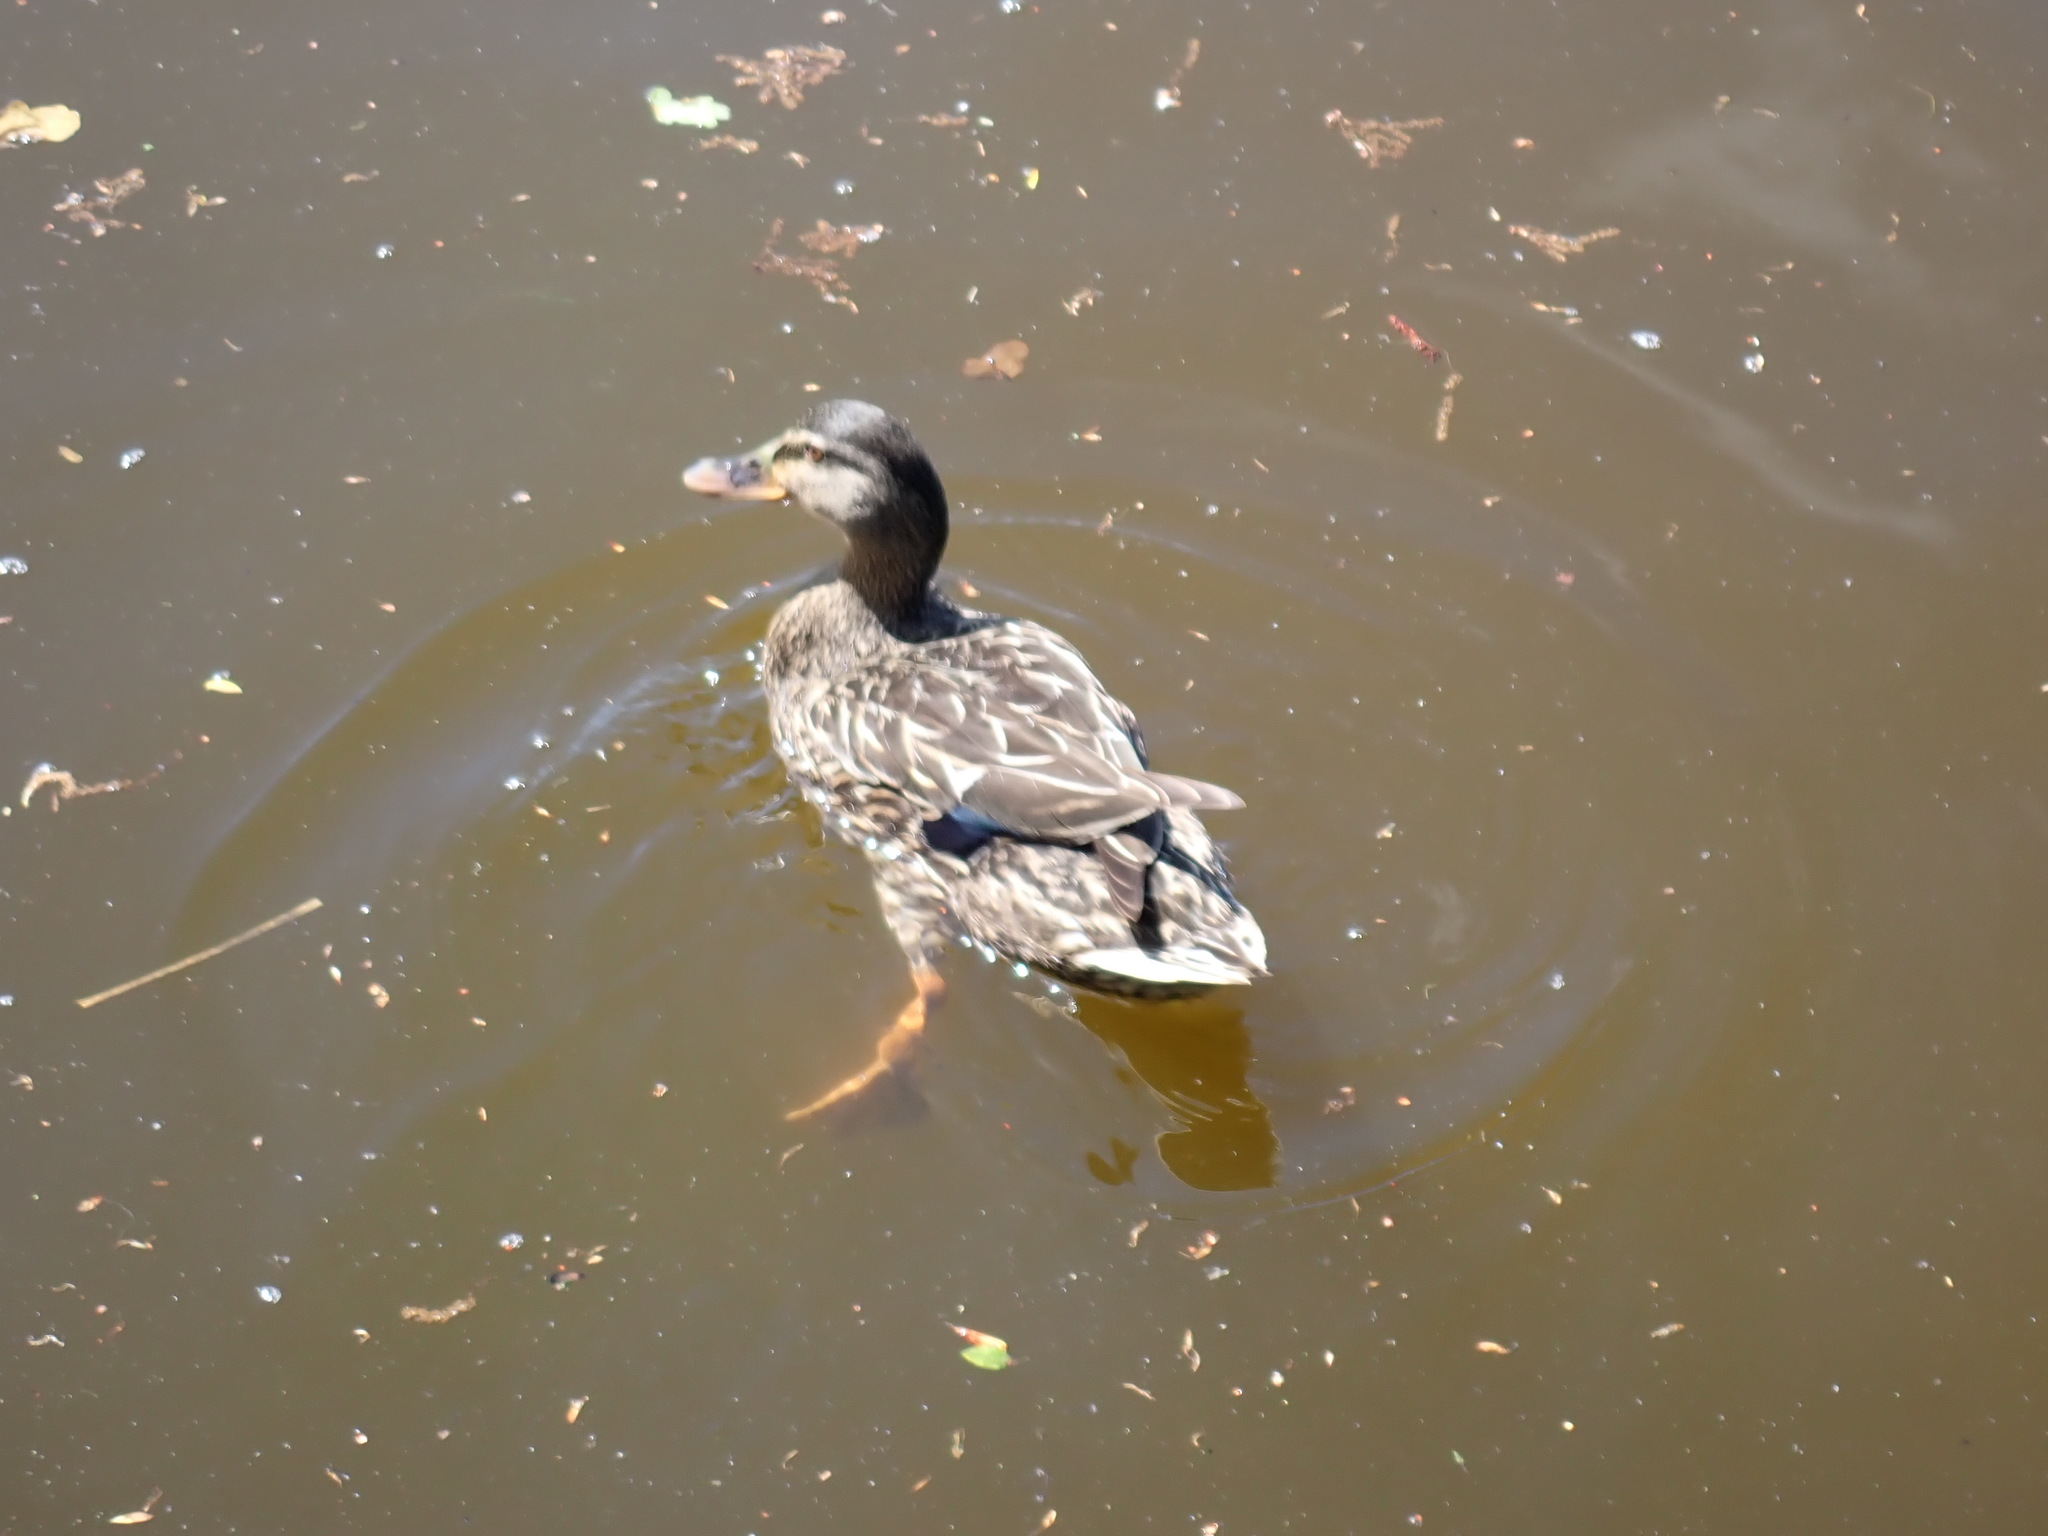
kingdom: Animalia
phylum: Chordata
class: Aves
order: Anseriformes
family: Anatidae
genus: Anas
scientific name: Anas
